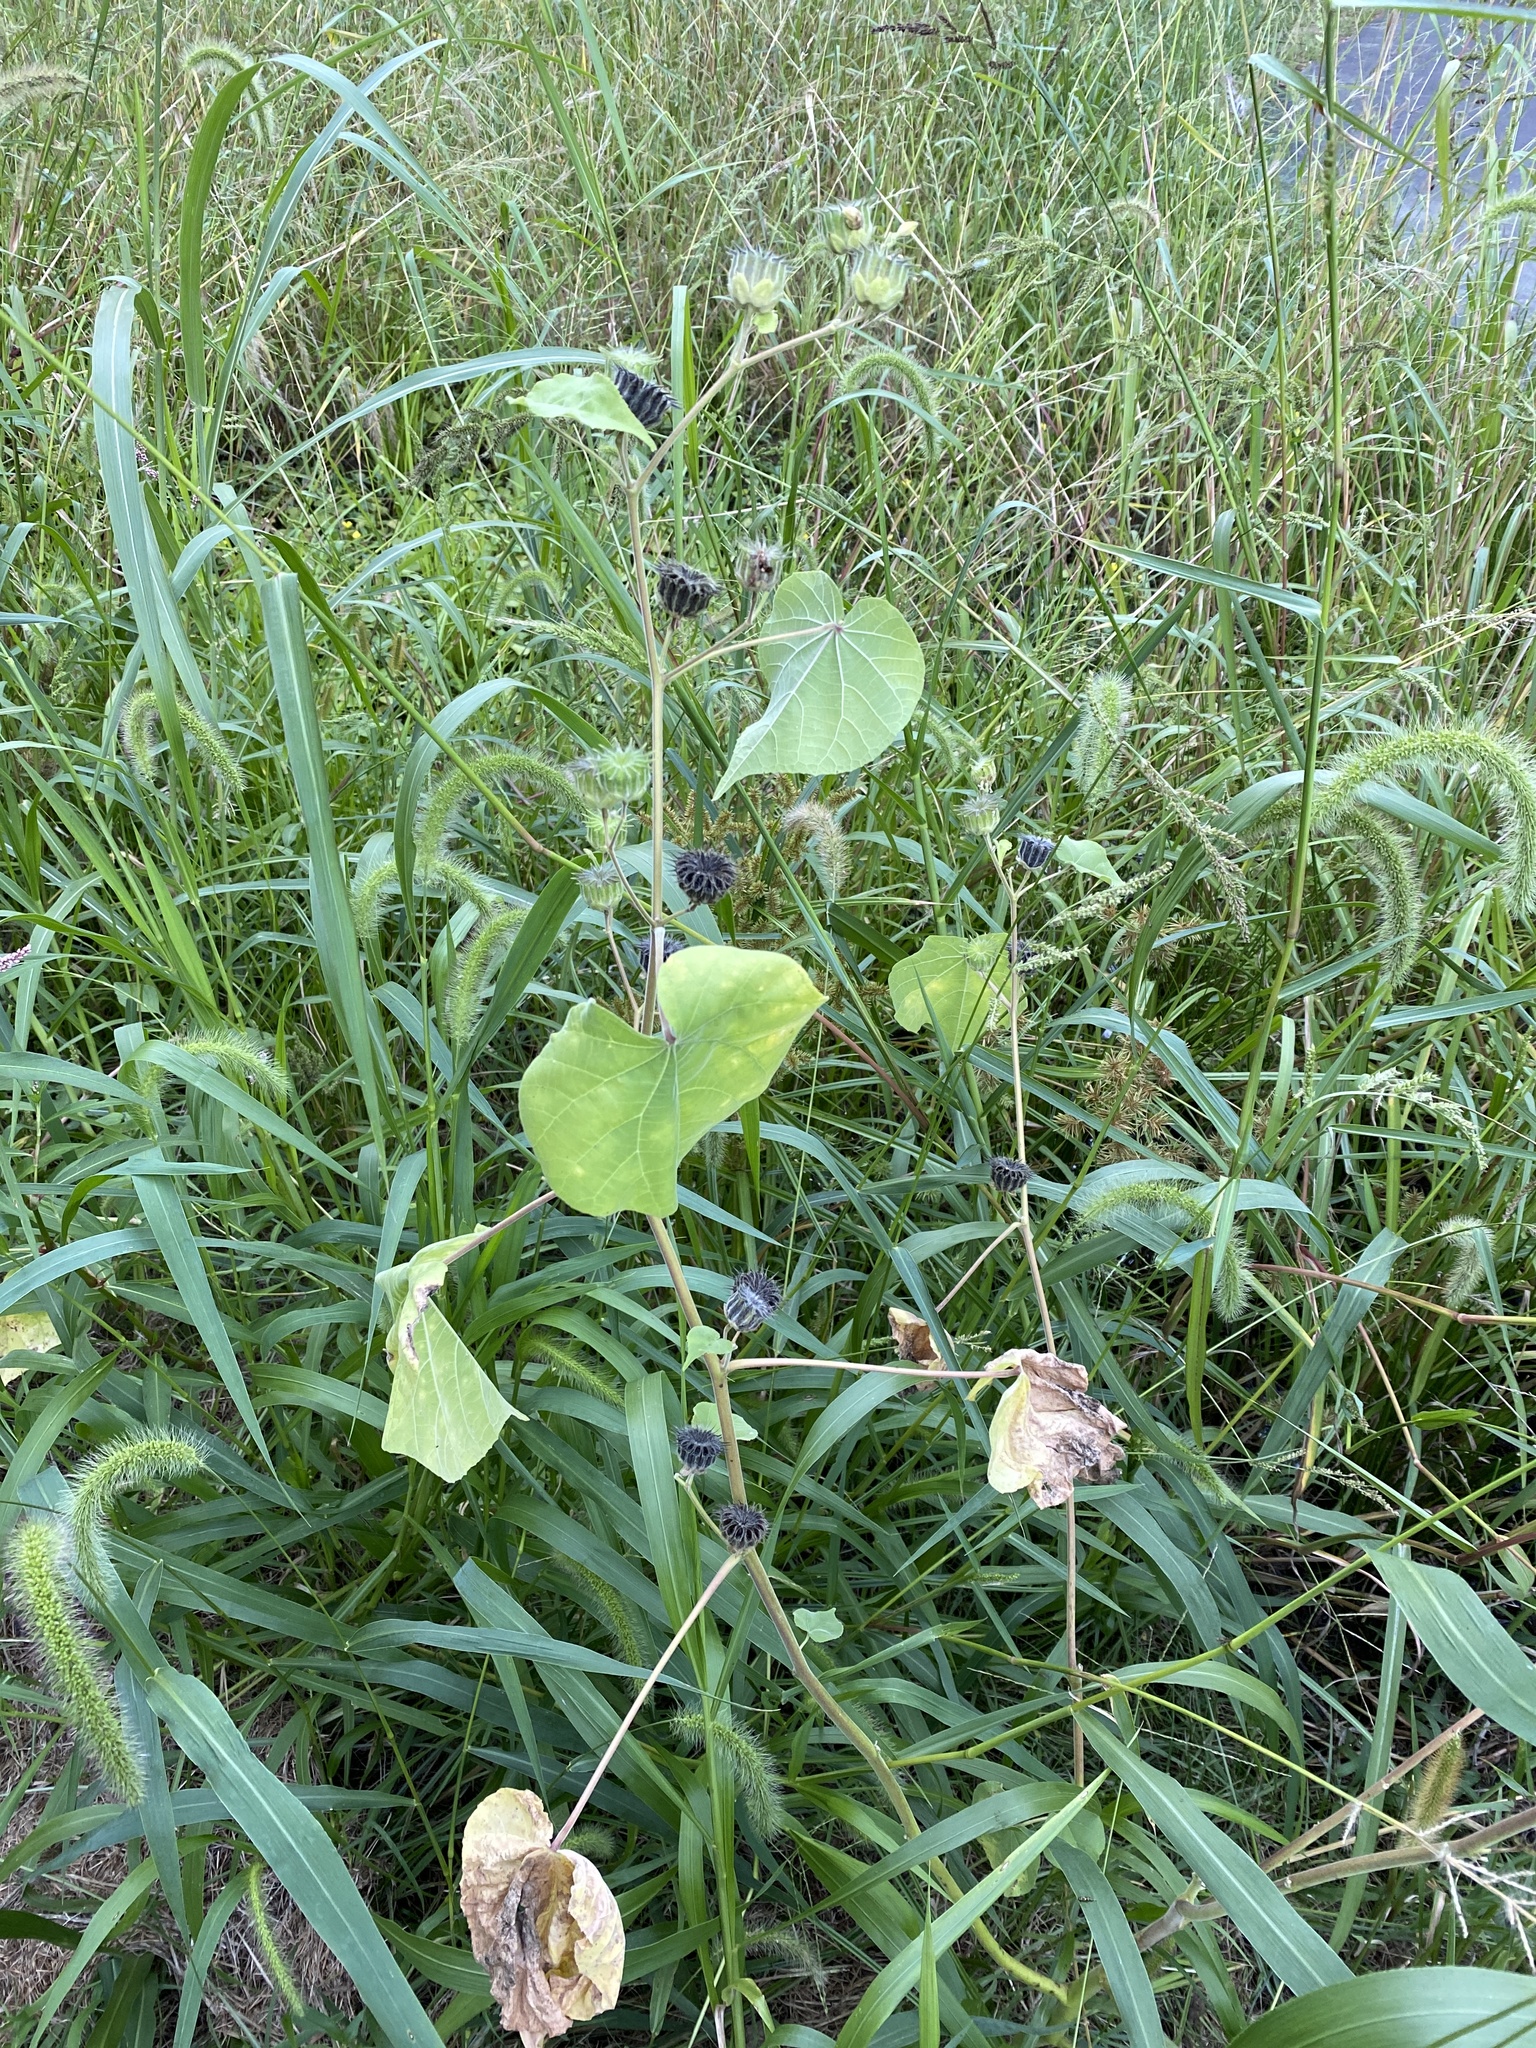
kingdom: Plantae
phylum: Tracheophyta
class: Magnoliopsida
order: Malvales
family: Malvaceae
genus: Abutilon
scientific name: Abutilon theophrasti
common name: Velvetleaf
